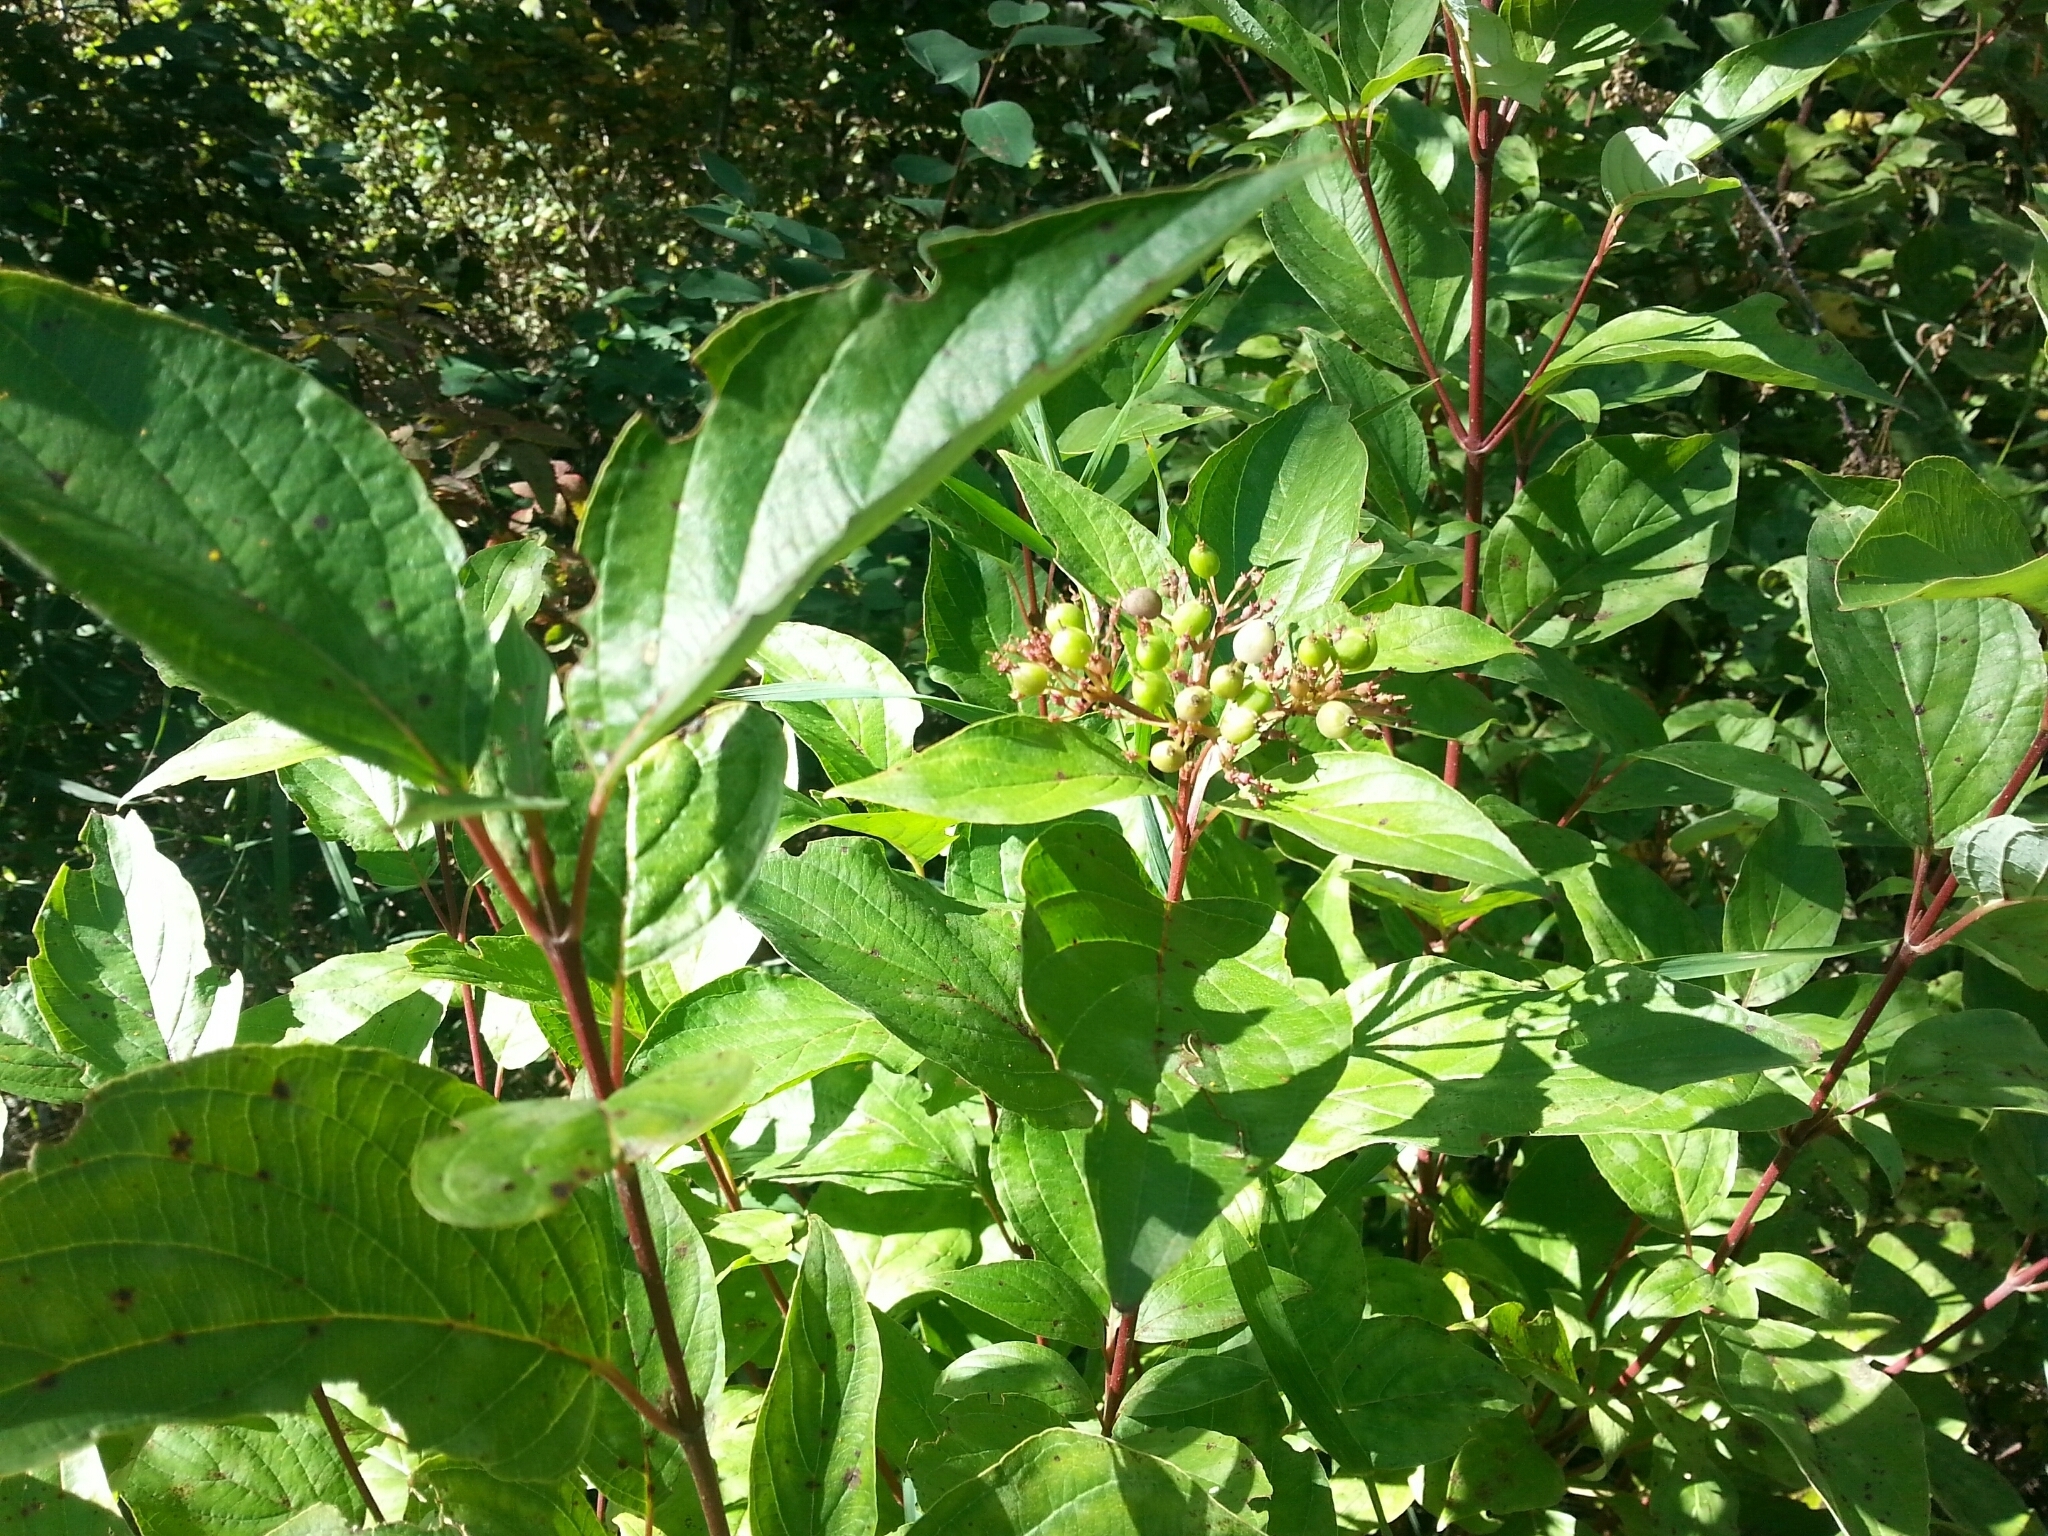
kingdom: Plantae
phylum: Tracheophyta
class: Magnoliopsida
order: Cornales
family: Cornaceae
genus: Cornus
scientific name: Cornus sericea
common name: Red-osier dogwood
